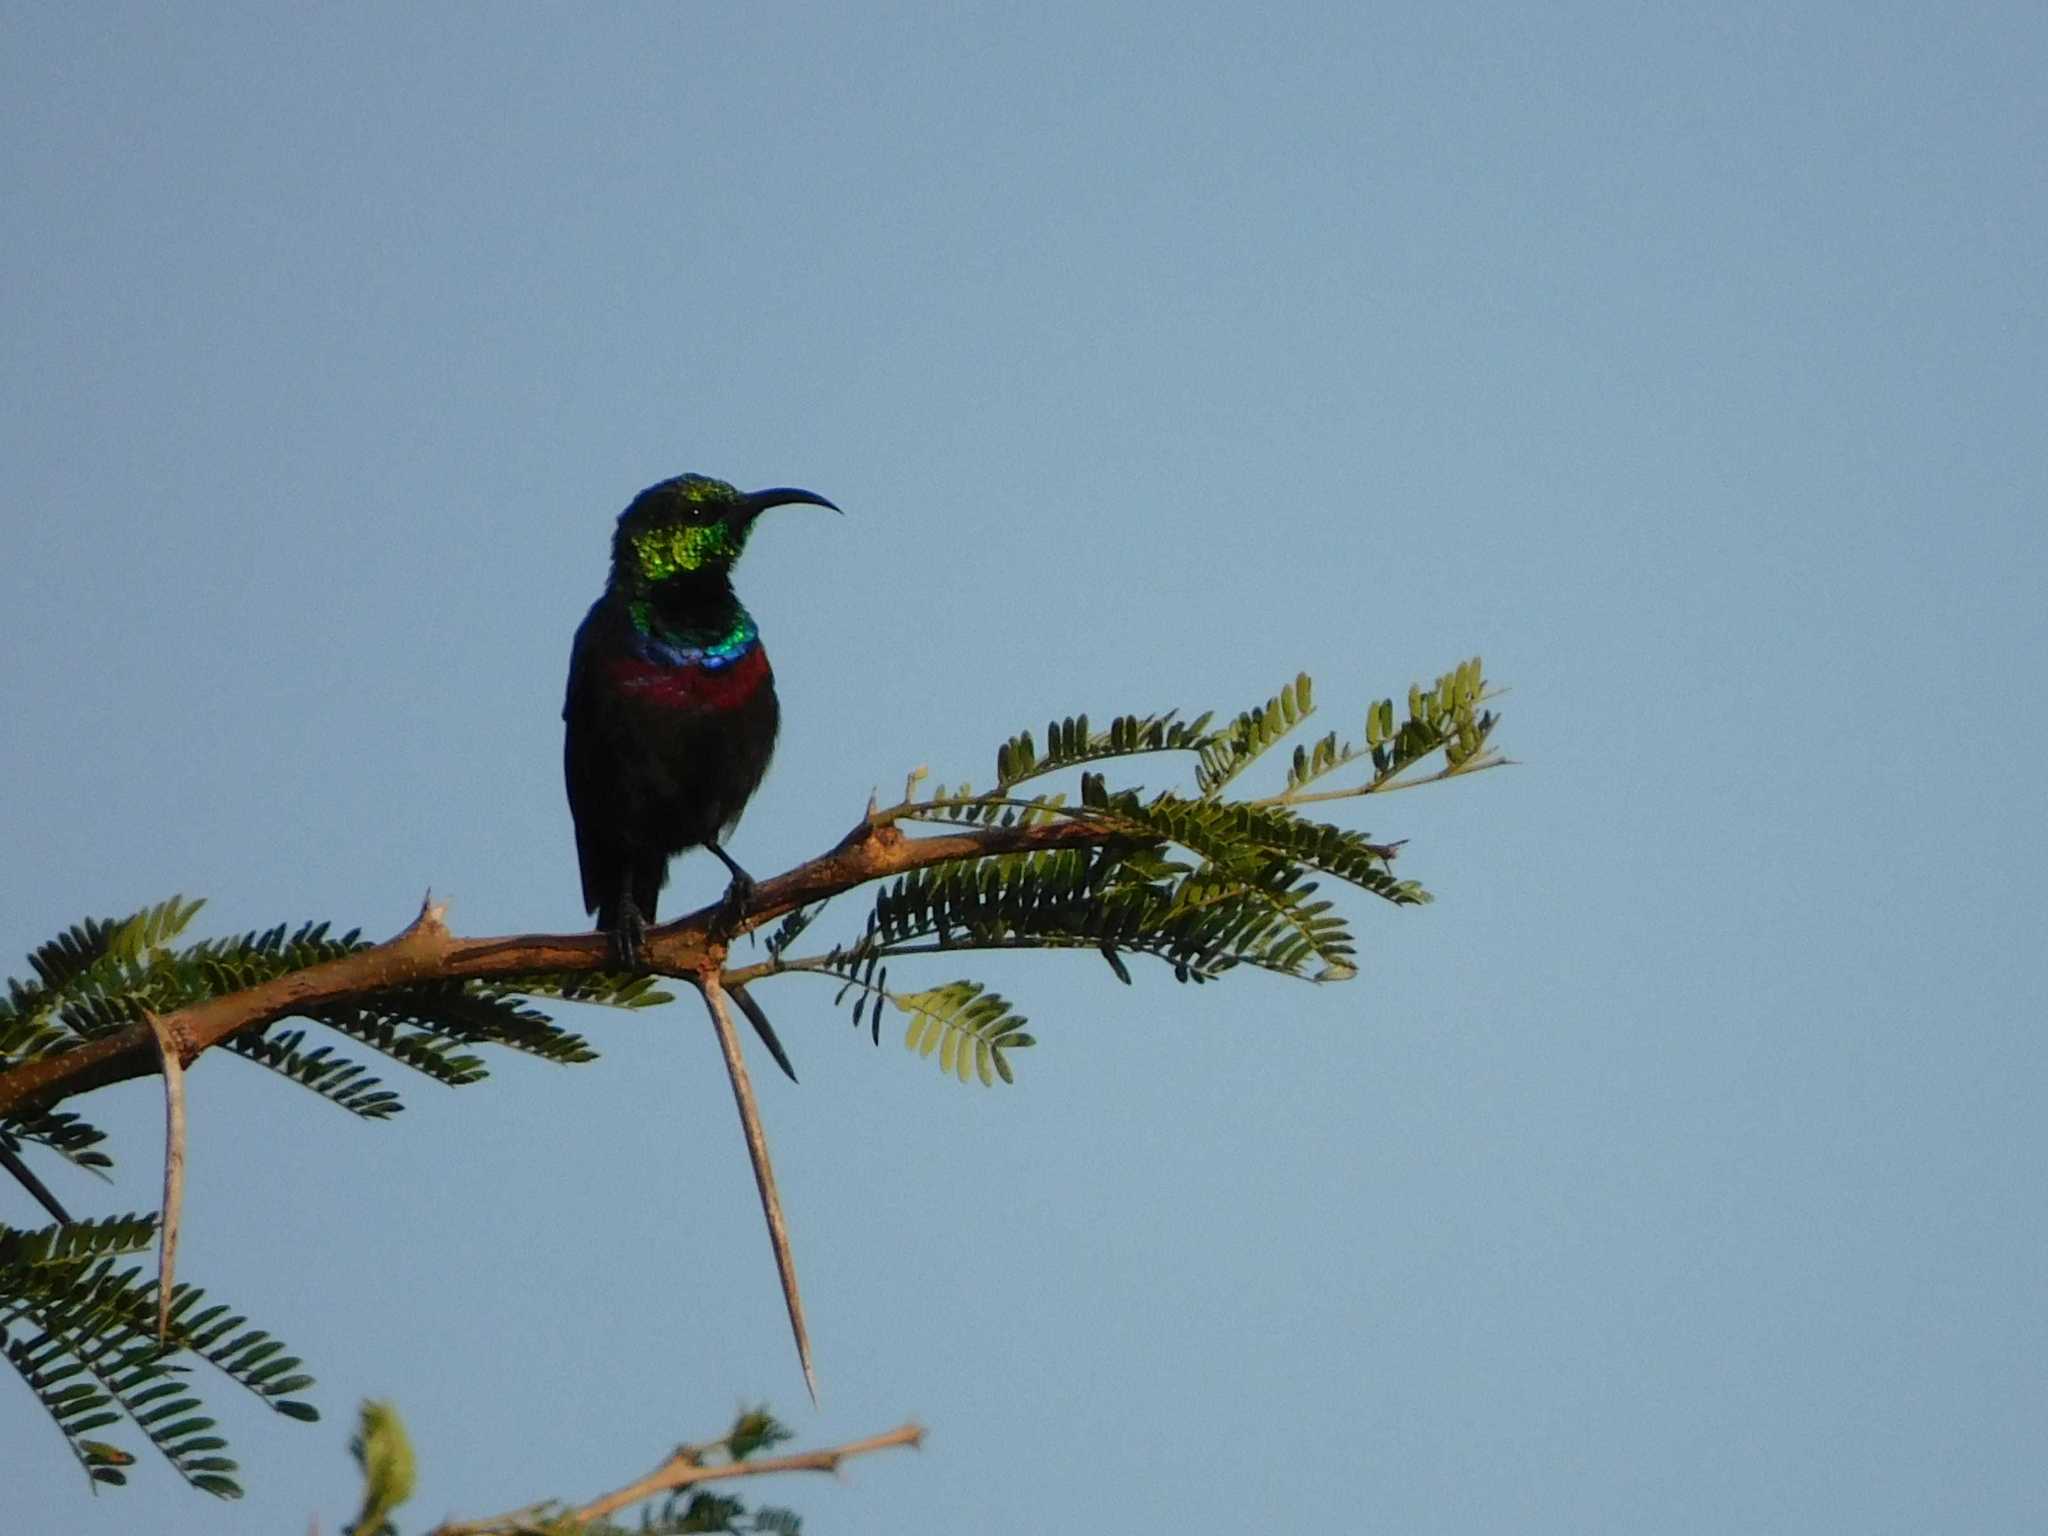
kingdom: Animalia
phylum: Chordata
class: Aves
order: Passeriformes
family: Nectariniidae
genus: Cinnyris
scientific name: Cinnyris mariquensis
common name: Marico sunbird
